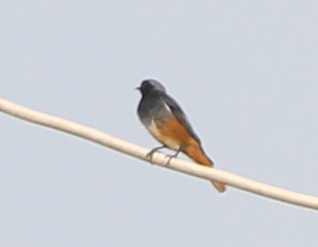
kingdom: Animalia
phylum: Chordata
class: Aves
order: Passeriformes
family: Muscicapidae
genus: Phoenicurus
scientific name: Phoenicurus ochruros
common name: Black redstart
